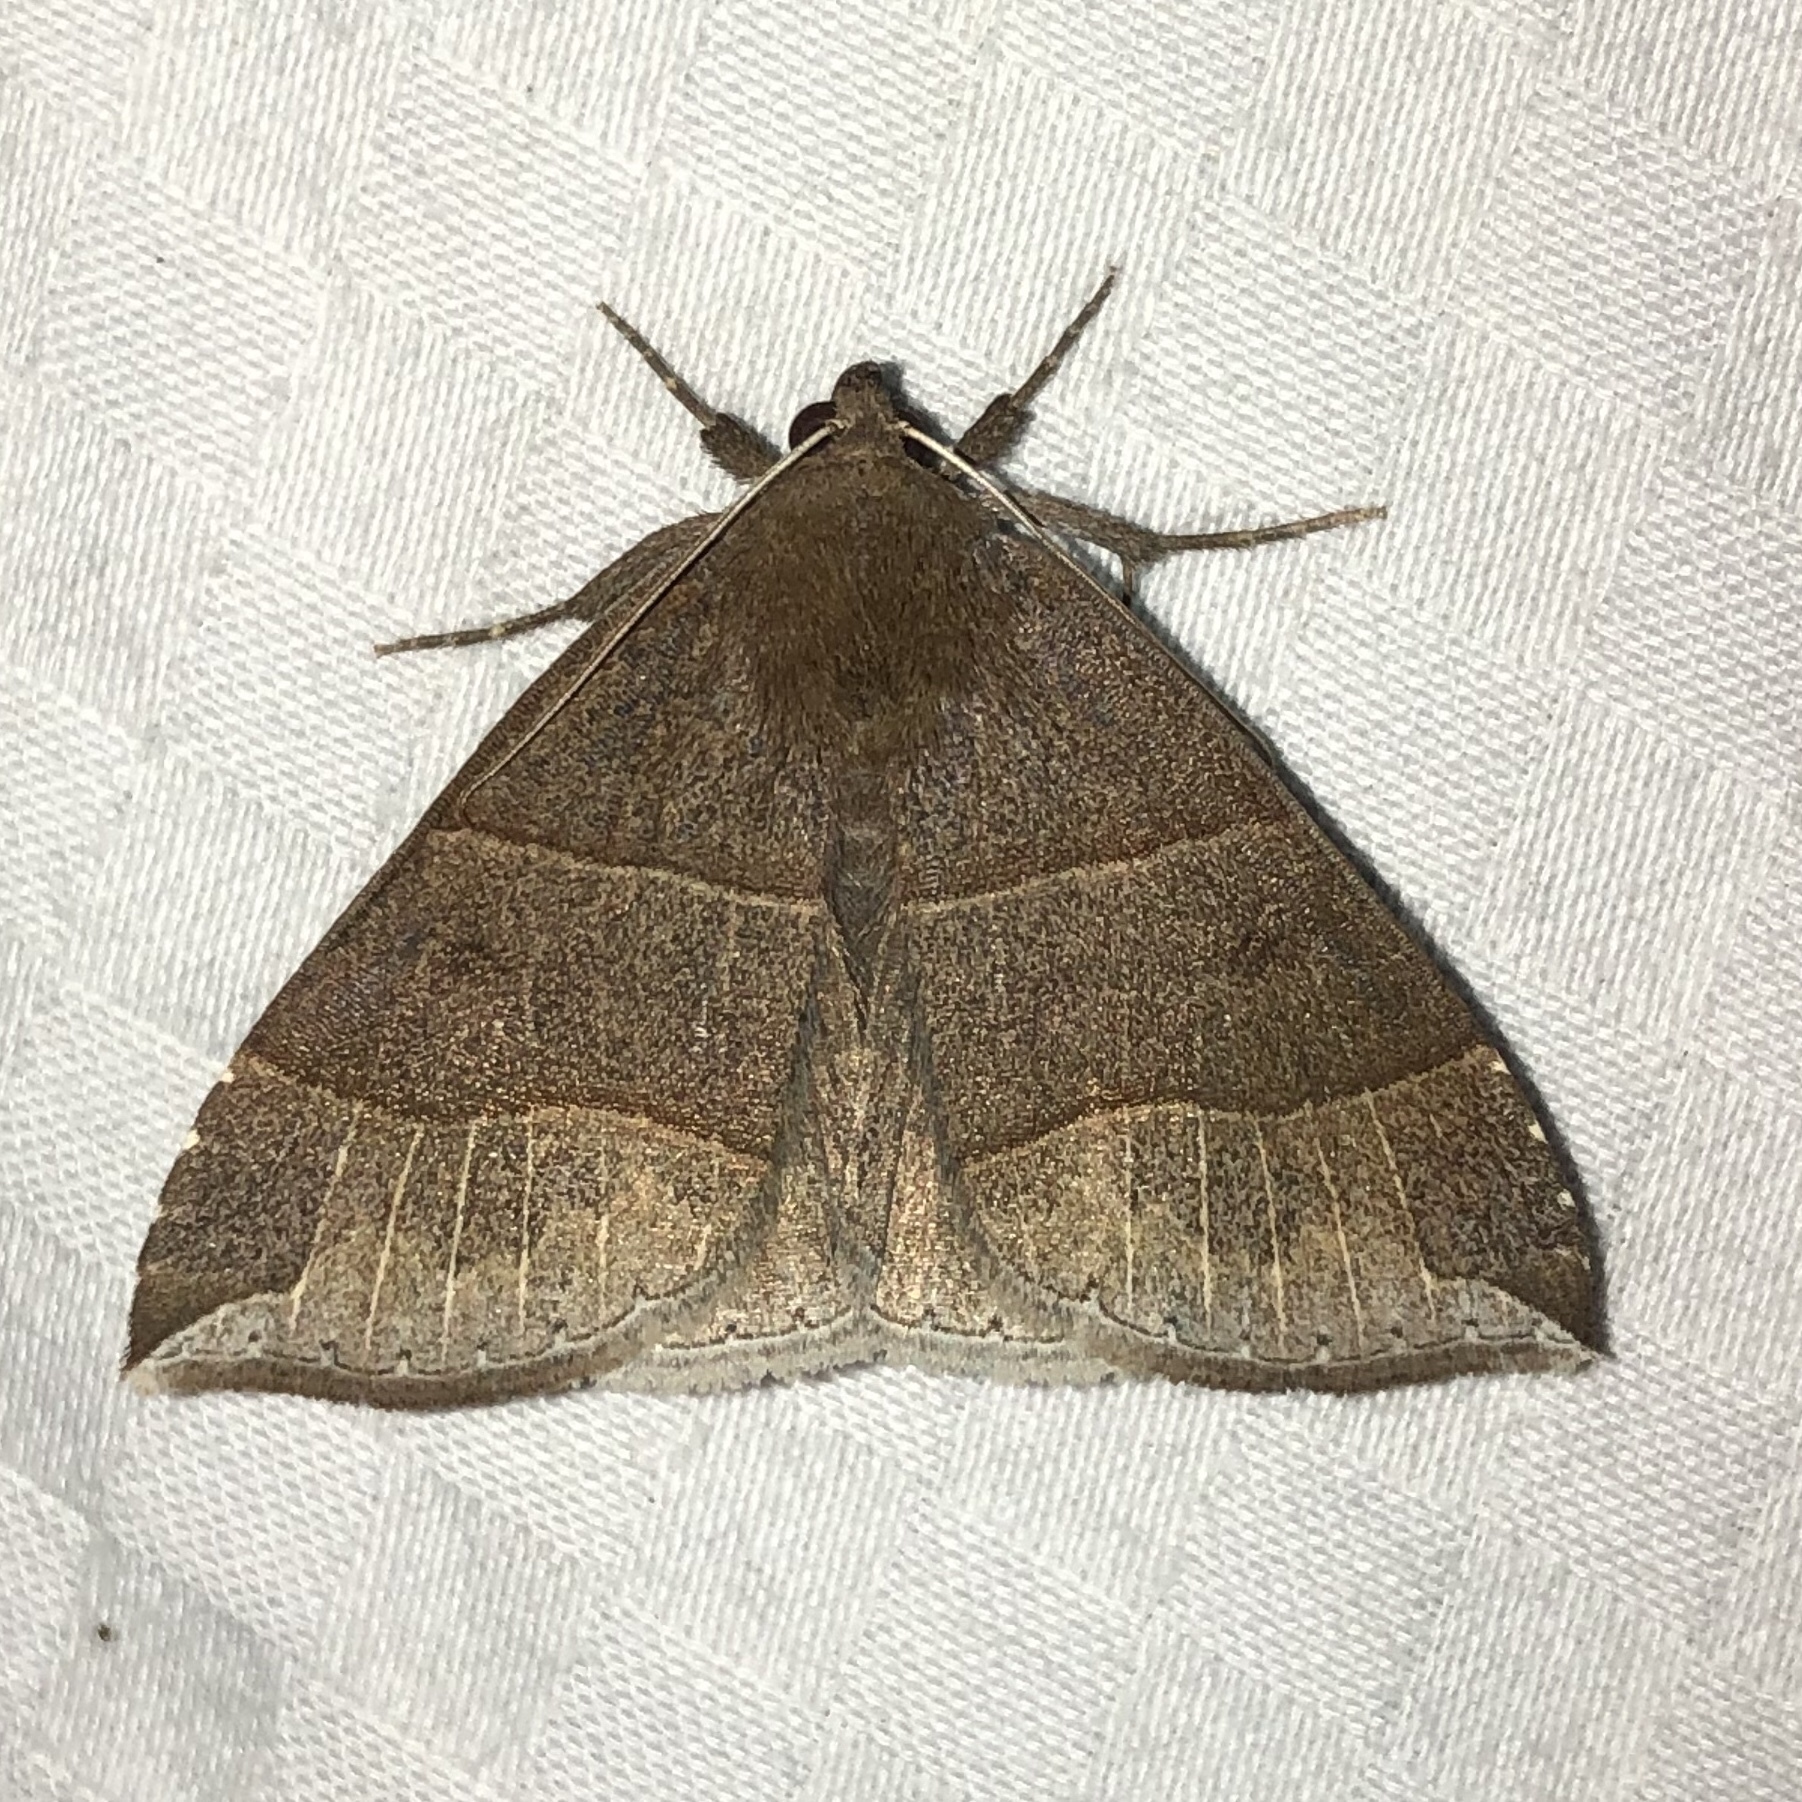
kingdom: Animalia
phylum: Arthropoda
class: Insecta
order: Lepidoptera
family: Erebidae
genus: Parallelia
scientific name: Parallelia bistriaris
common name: Maple looper moth
